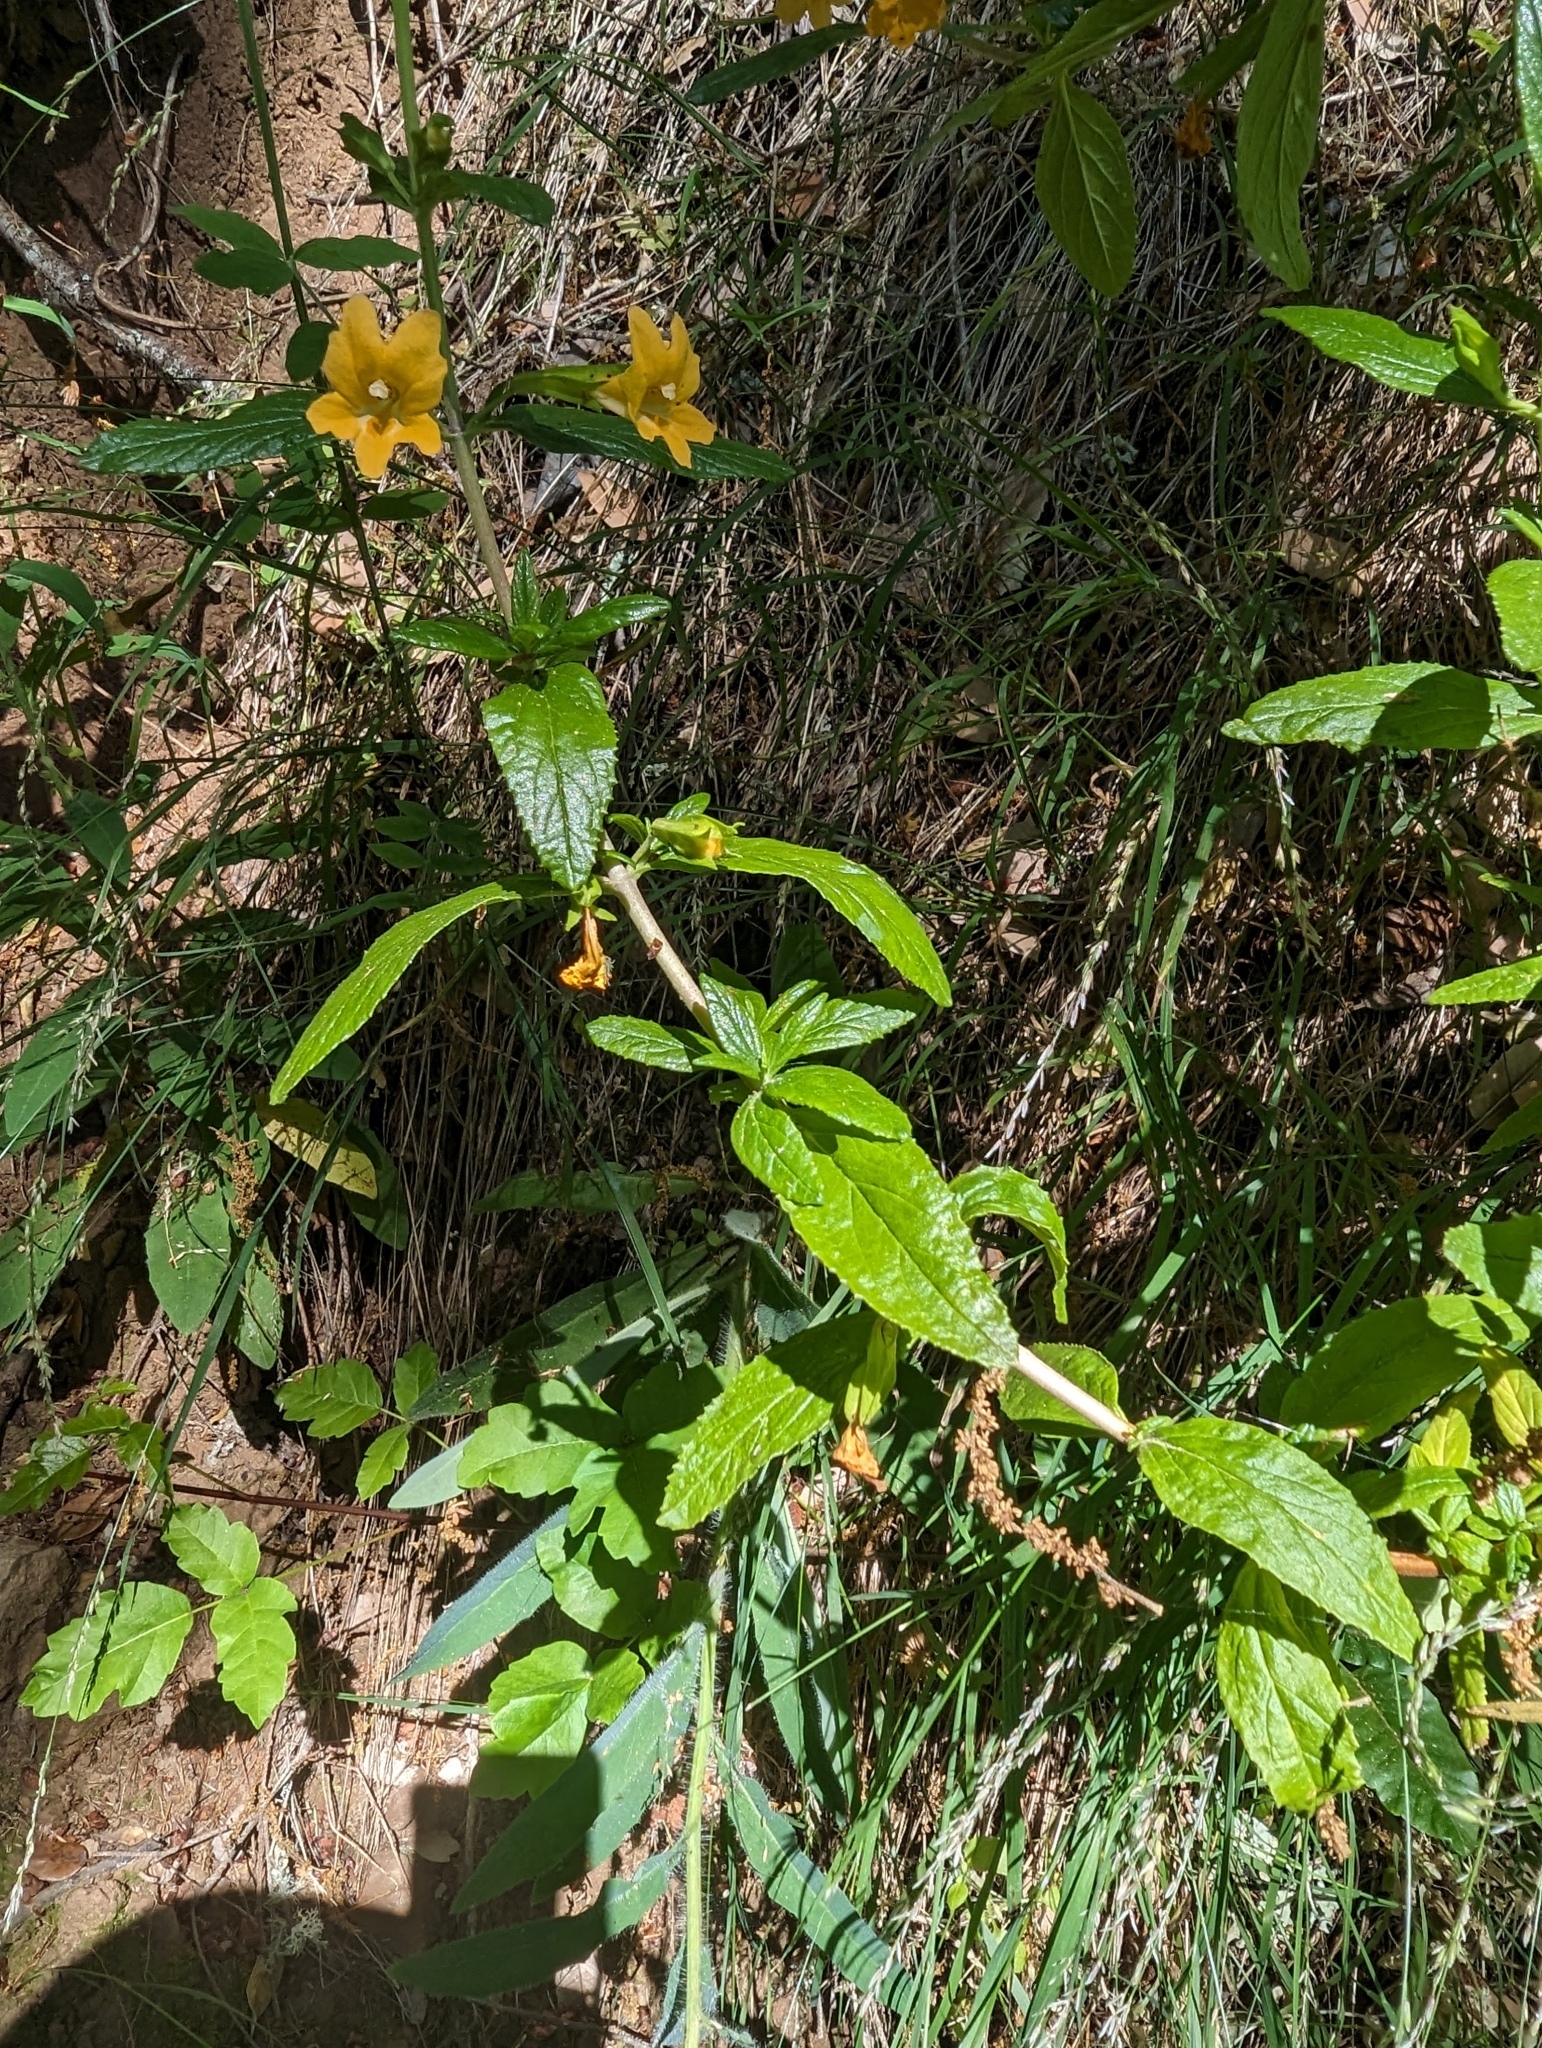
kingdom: Plantae
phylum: Tracheophyta
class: Magnoliopsida
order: Lamiales
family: Phrymaceae
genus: Diplacus
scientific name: Diplacus aurantiacus
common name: Bush monkey-flower
